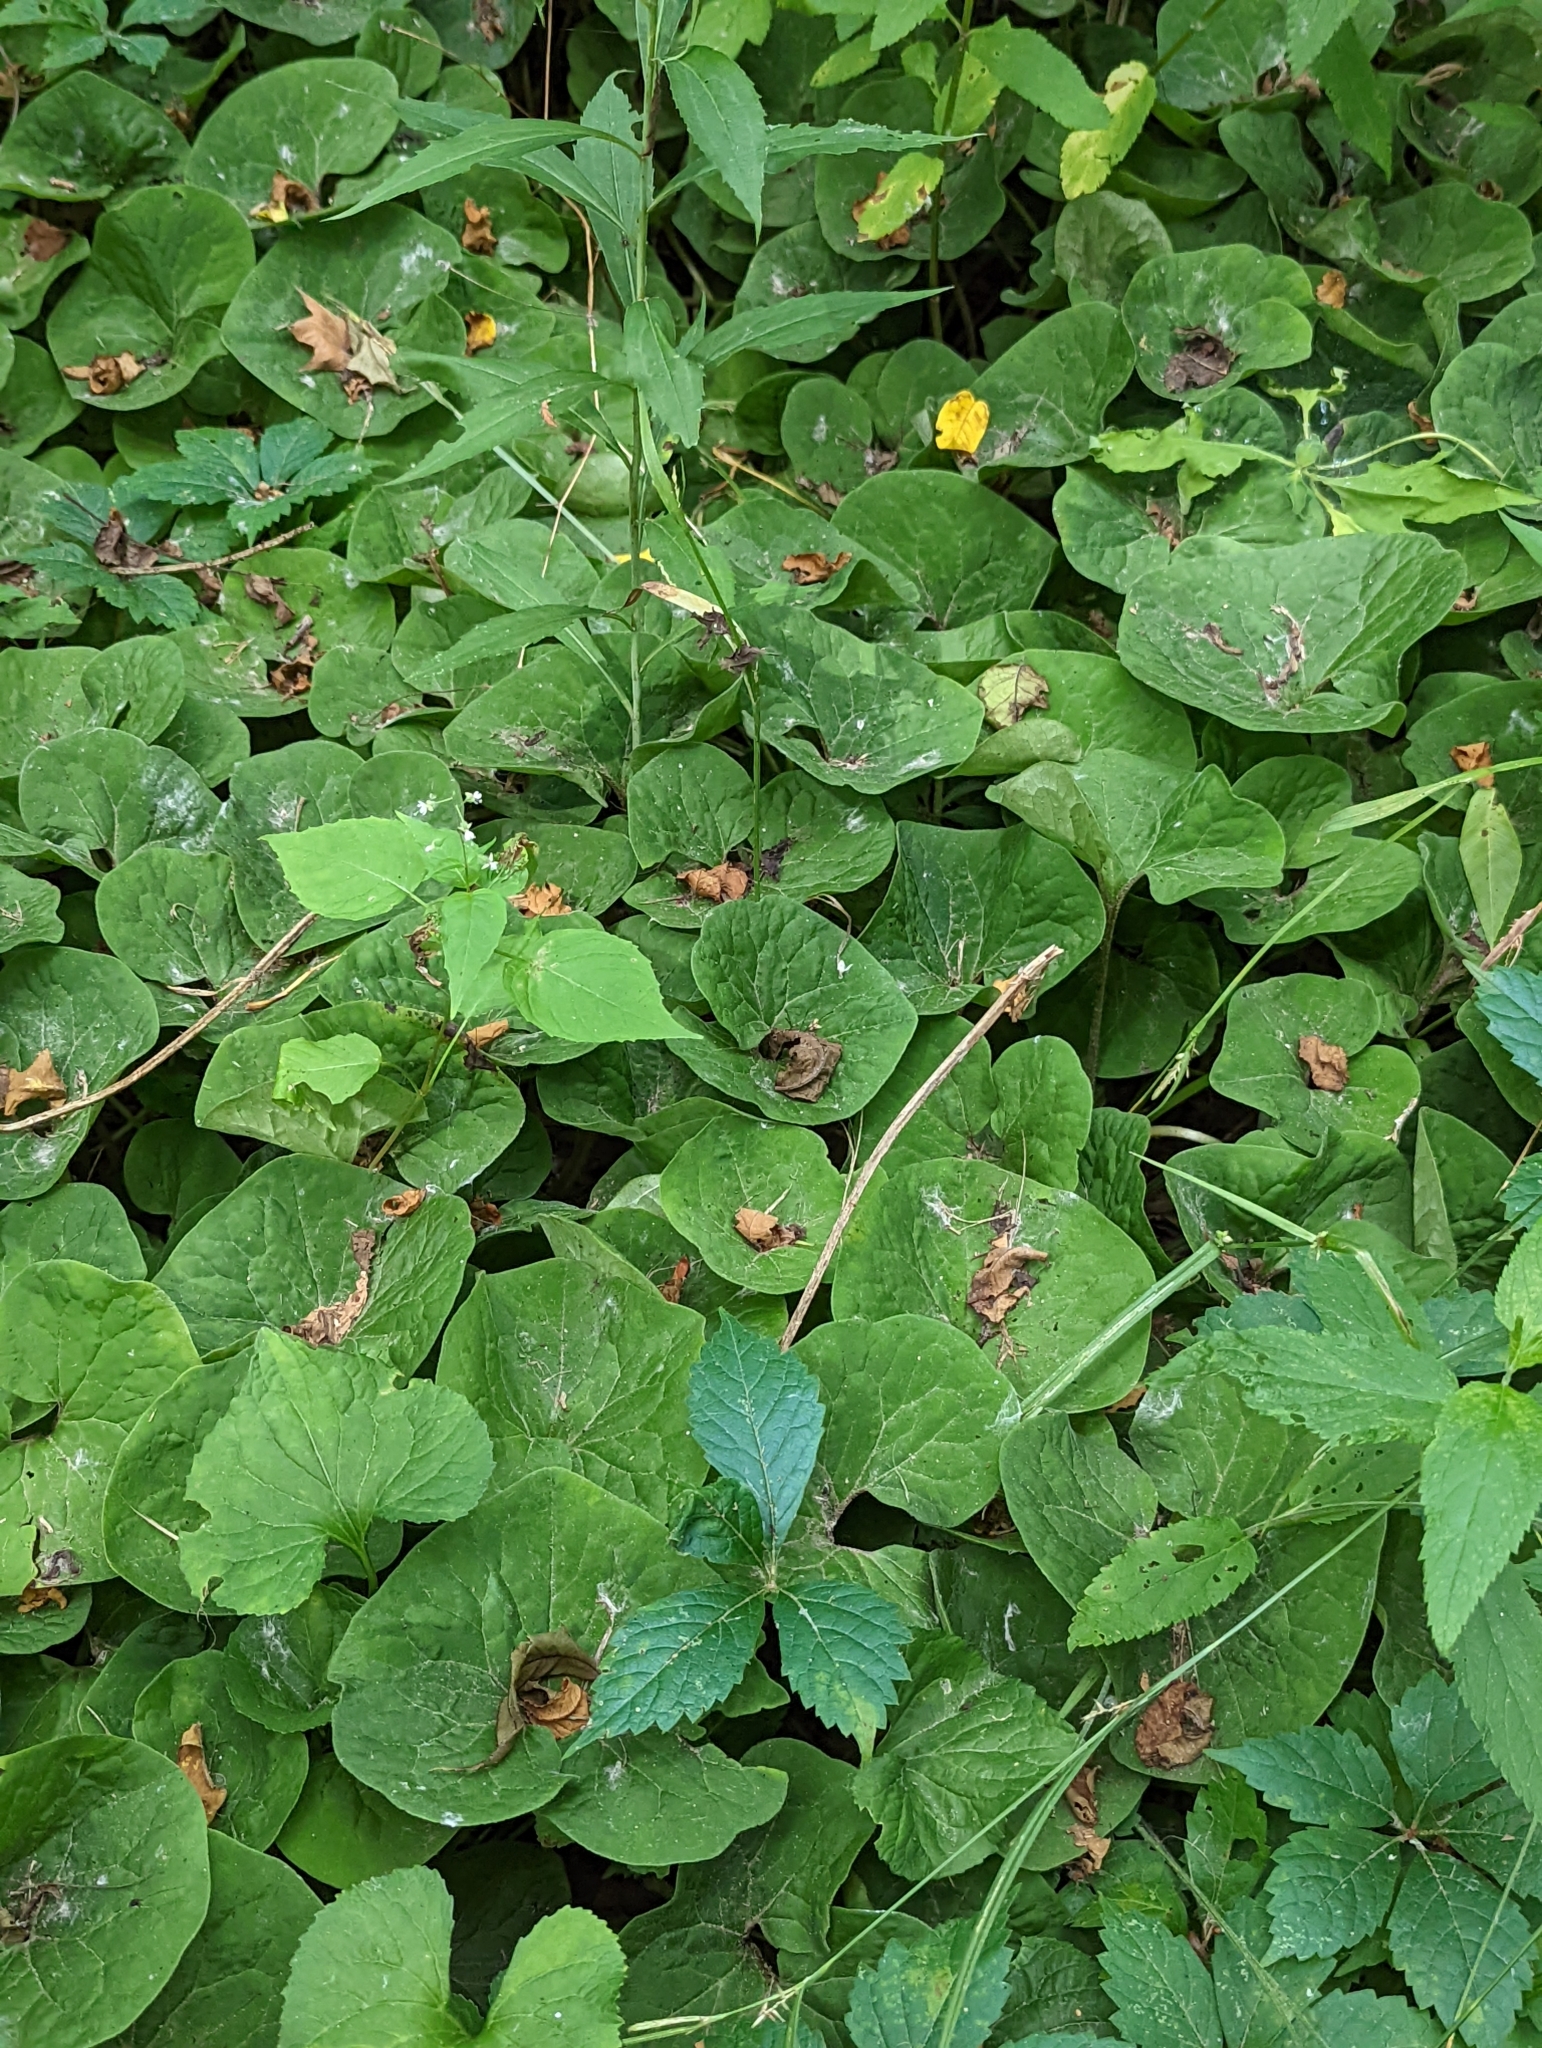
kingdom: Plantae
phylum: Tracheophyta
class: Magnoliopsida
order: Piperales
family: Aristolochiaceae
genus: Asarum
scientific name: Asarum canadense
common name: Wild ginger
